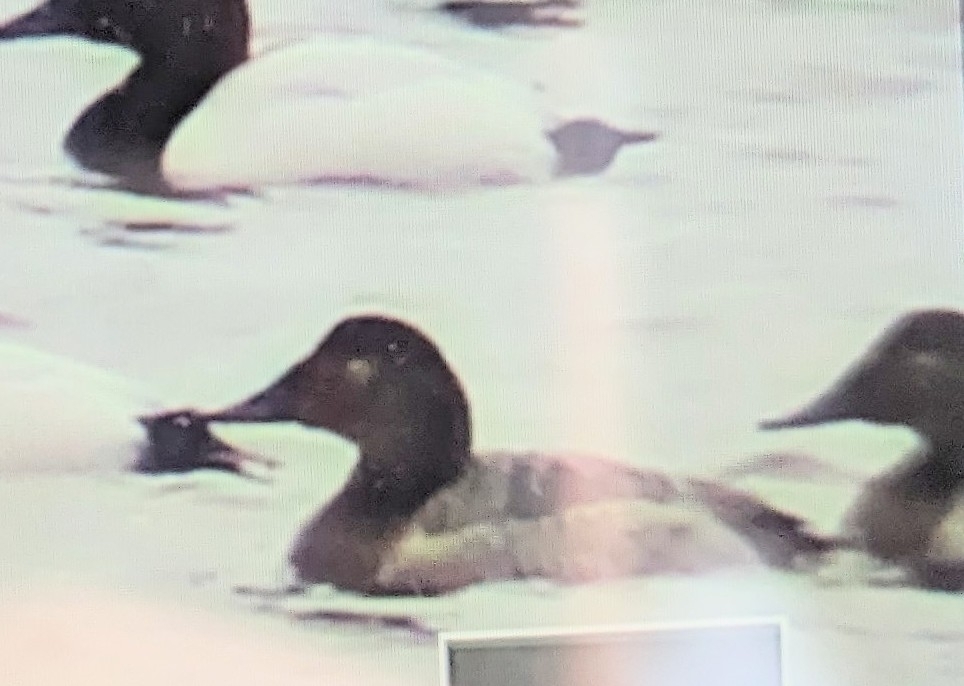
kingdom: Animalia
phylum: Chordata
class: Aves
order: Anseriformes
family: Anatidae
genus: Aythya
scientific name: Aythya valisineria
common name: Canvasback
